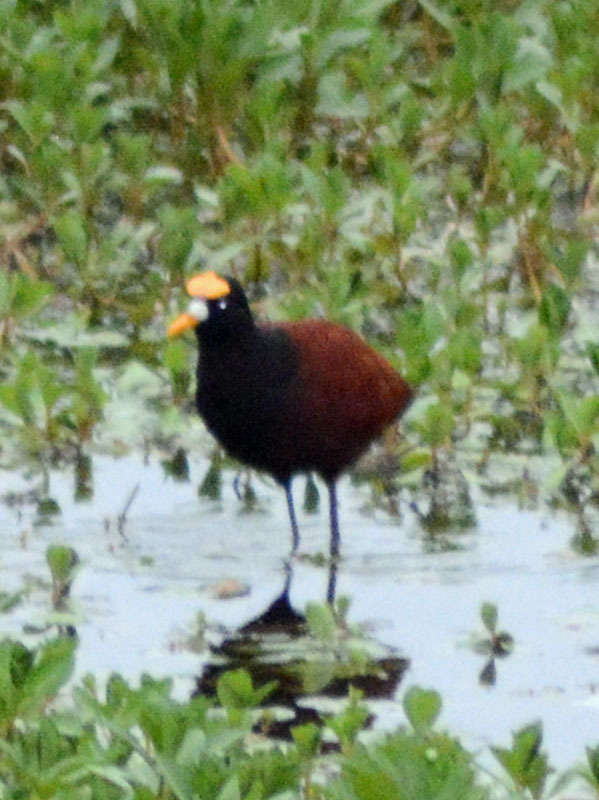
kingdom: Animalia
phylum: Chordata
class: Aves
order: Charadriiformes
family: Jacanidae
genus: Jacana
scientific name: Jacana spinosa
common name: Northern jacana
